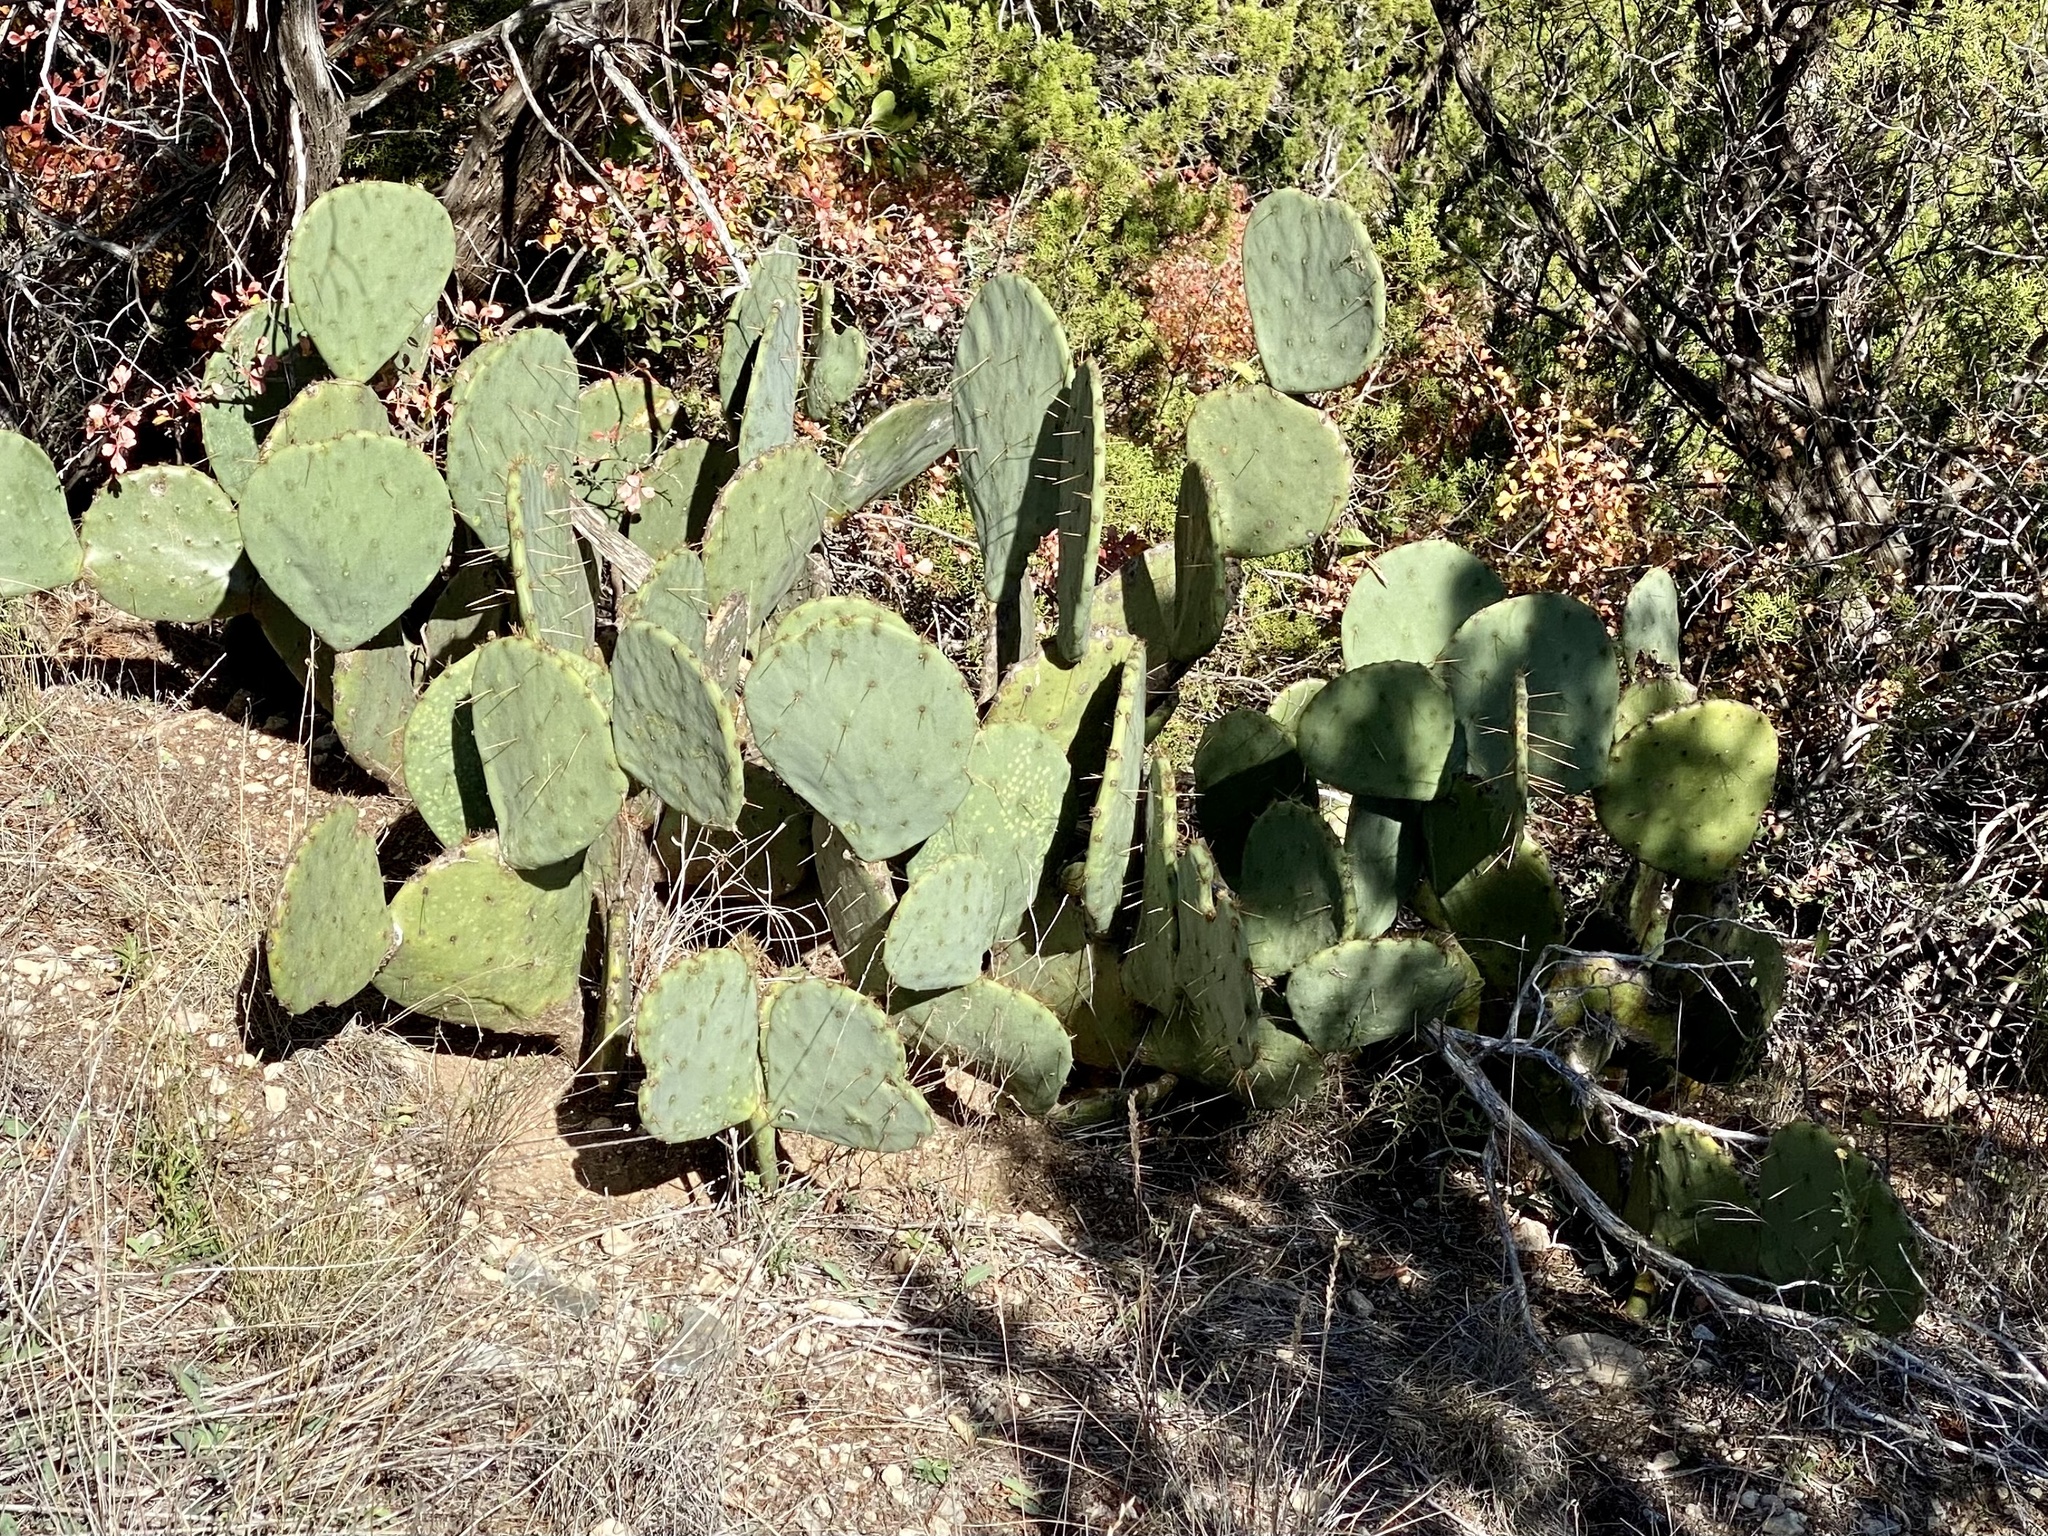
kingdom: Plantae
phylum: Tracheophyta
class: Magnoliopsida
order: Caryophyllales
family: Cactaceae
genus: Opuntia
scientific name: Opuntia orbiculata
